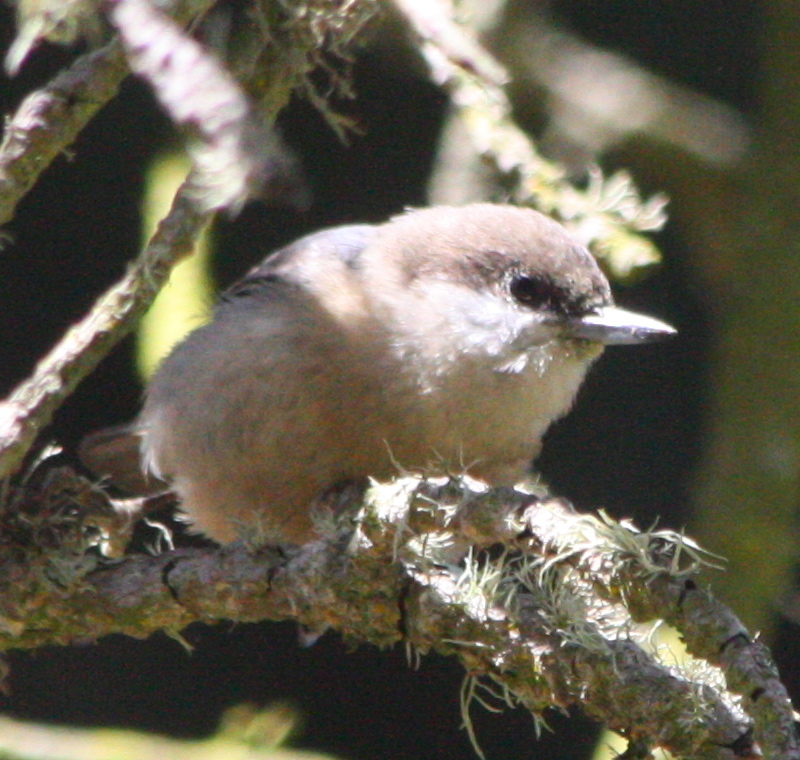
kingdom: Animalia
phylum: Chordata
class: Aves
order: Passeriformes
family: Sittidae
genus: Sitta
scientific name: Sitta pygmaea
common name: Pygmy nuthatch
